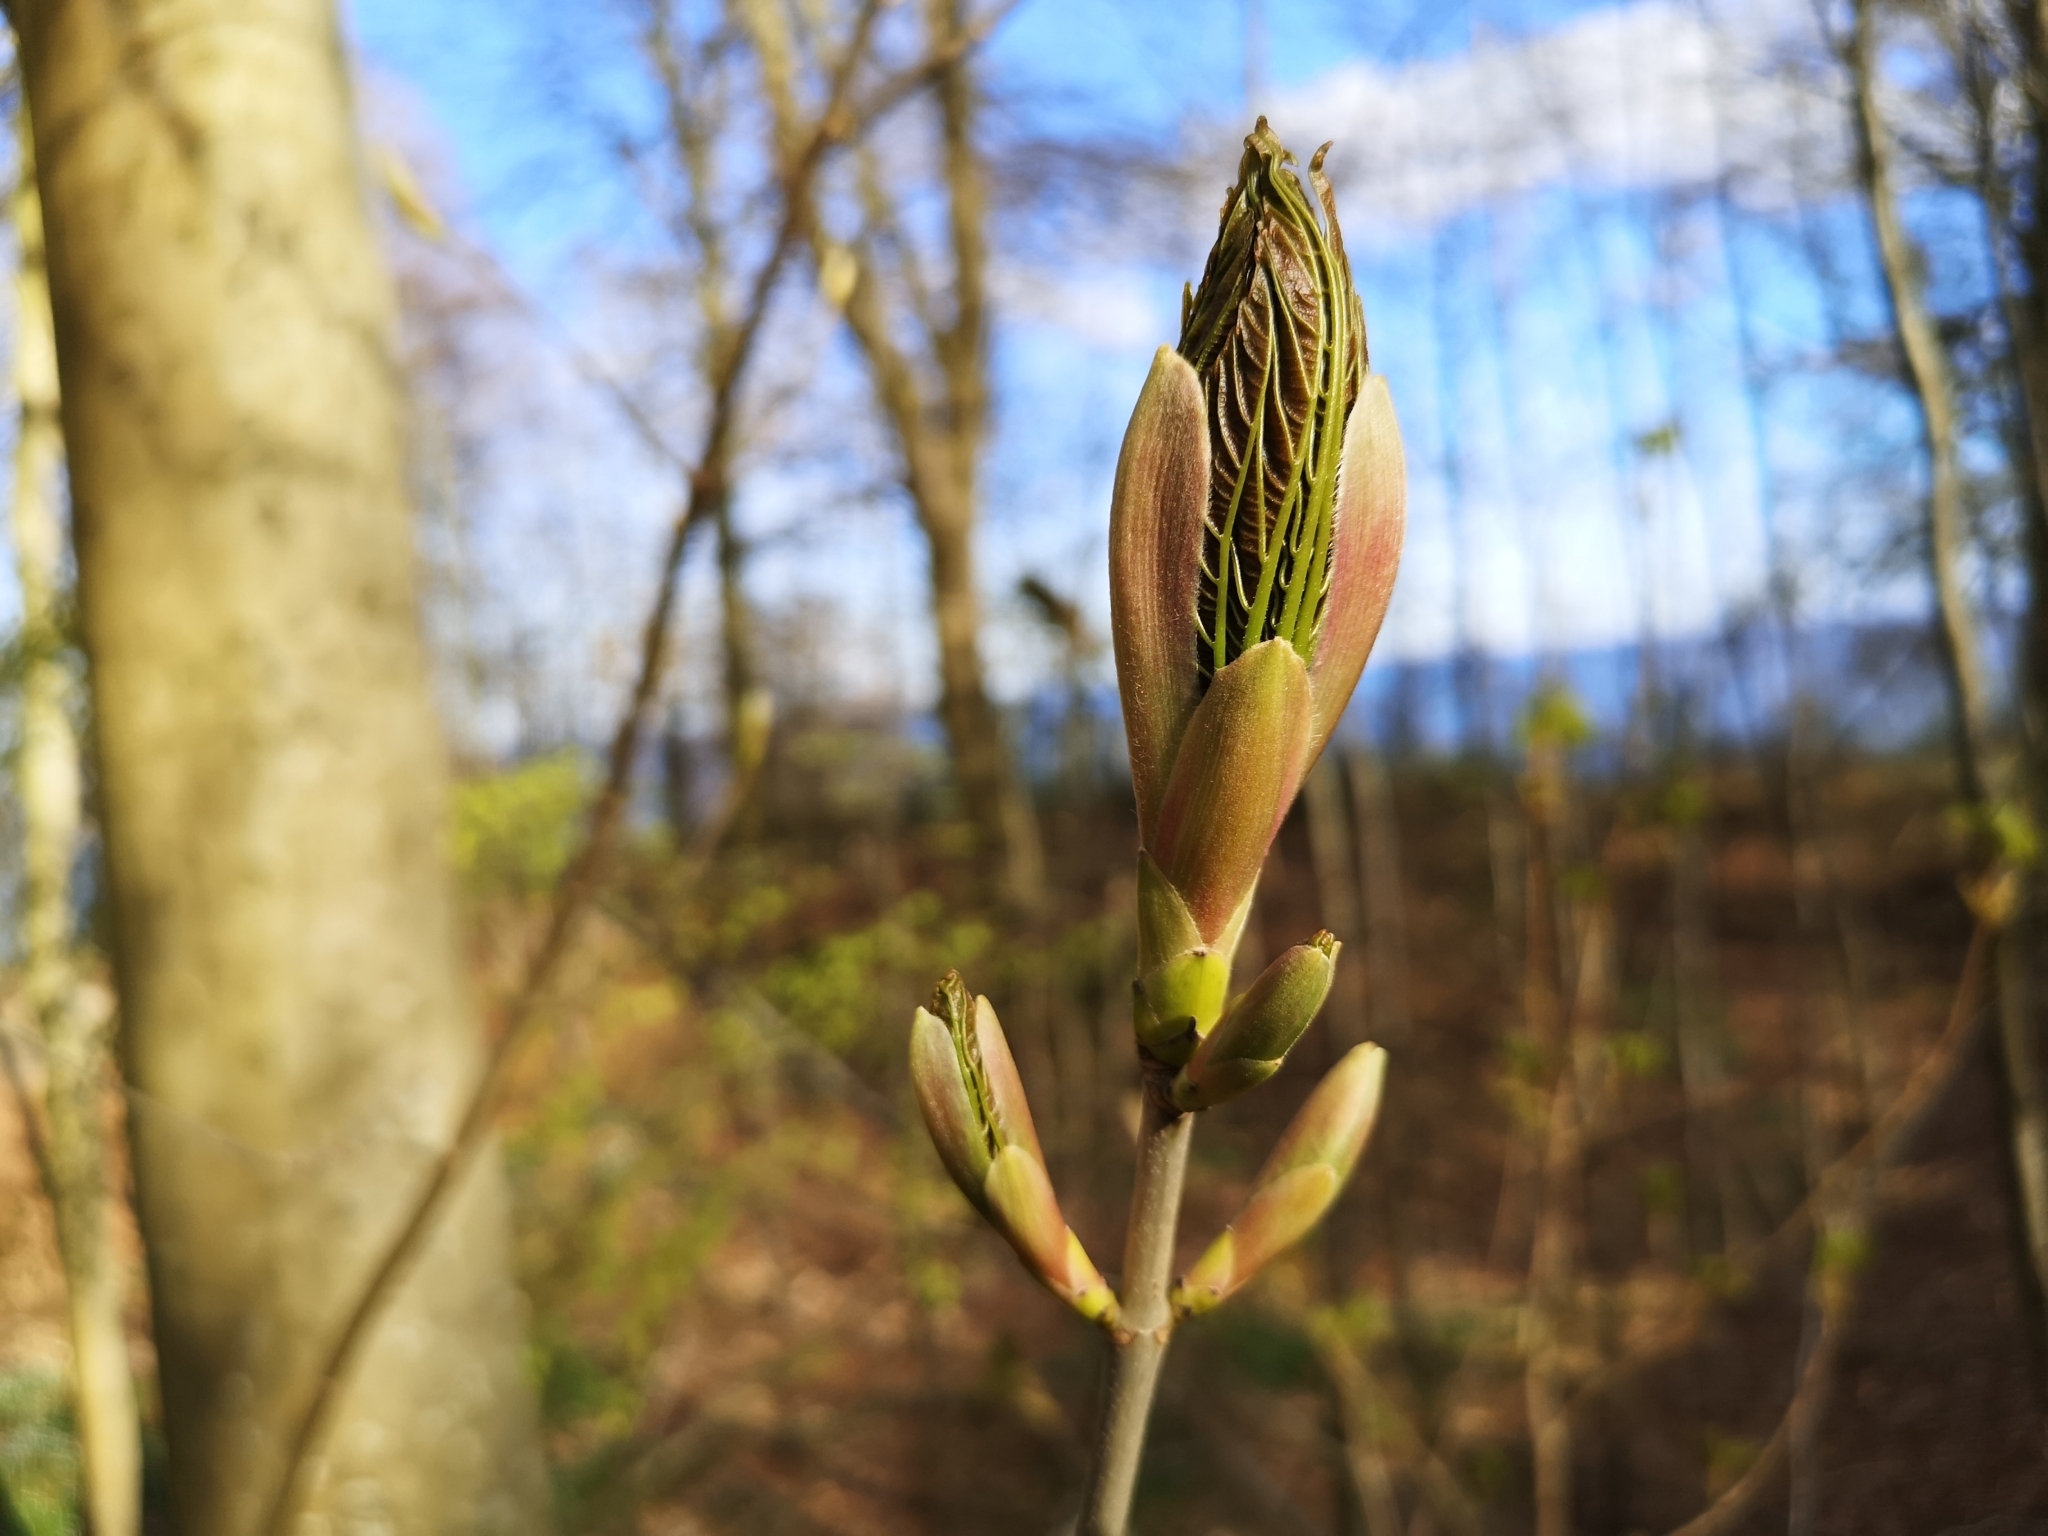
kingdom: Plantae
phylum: Tracheophyta
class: Magnoliopsida
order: Sapindales
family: Sapindaceae
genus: Acer
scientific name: Acer pseudoplatanus
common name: Sycamore
